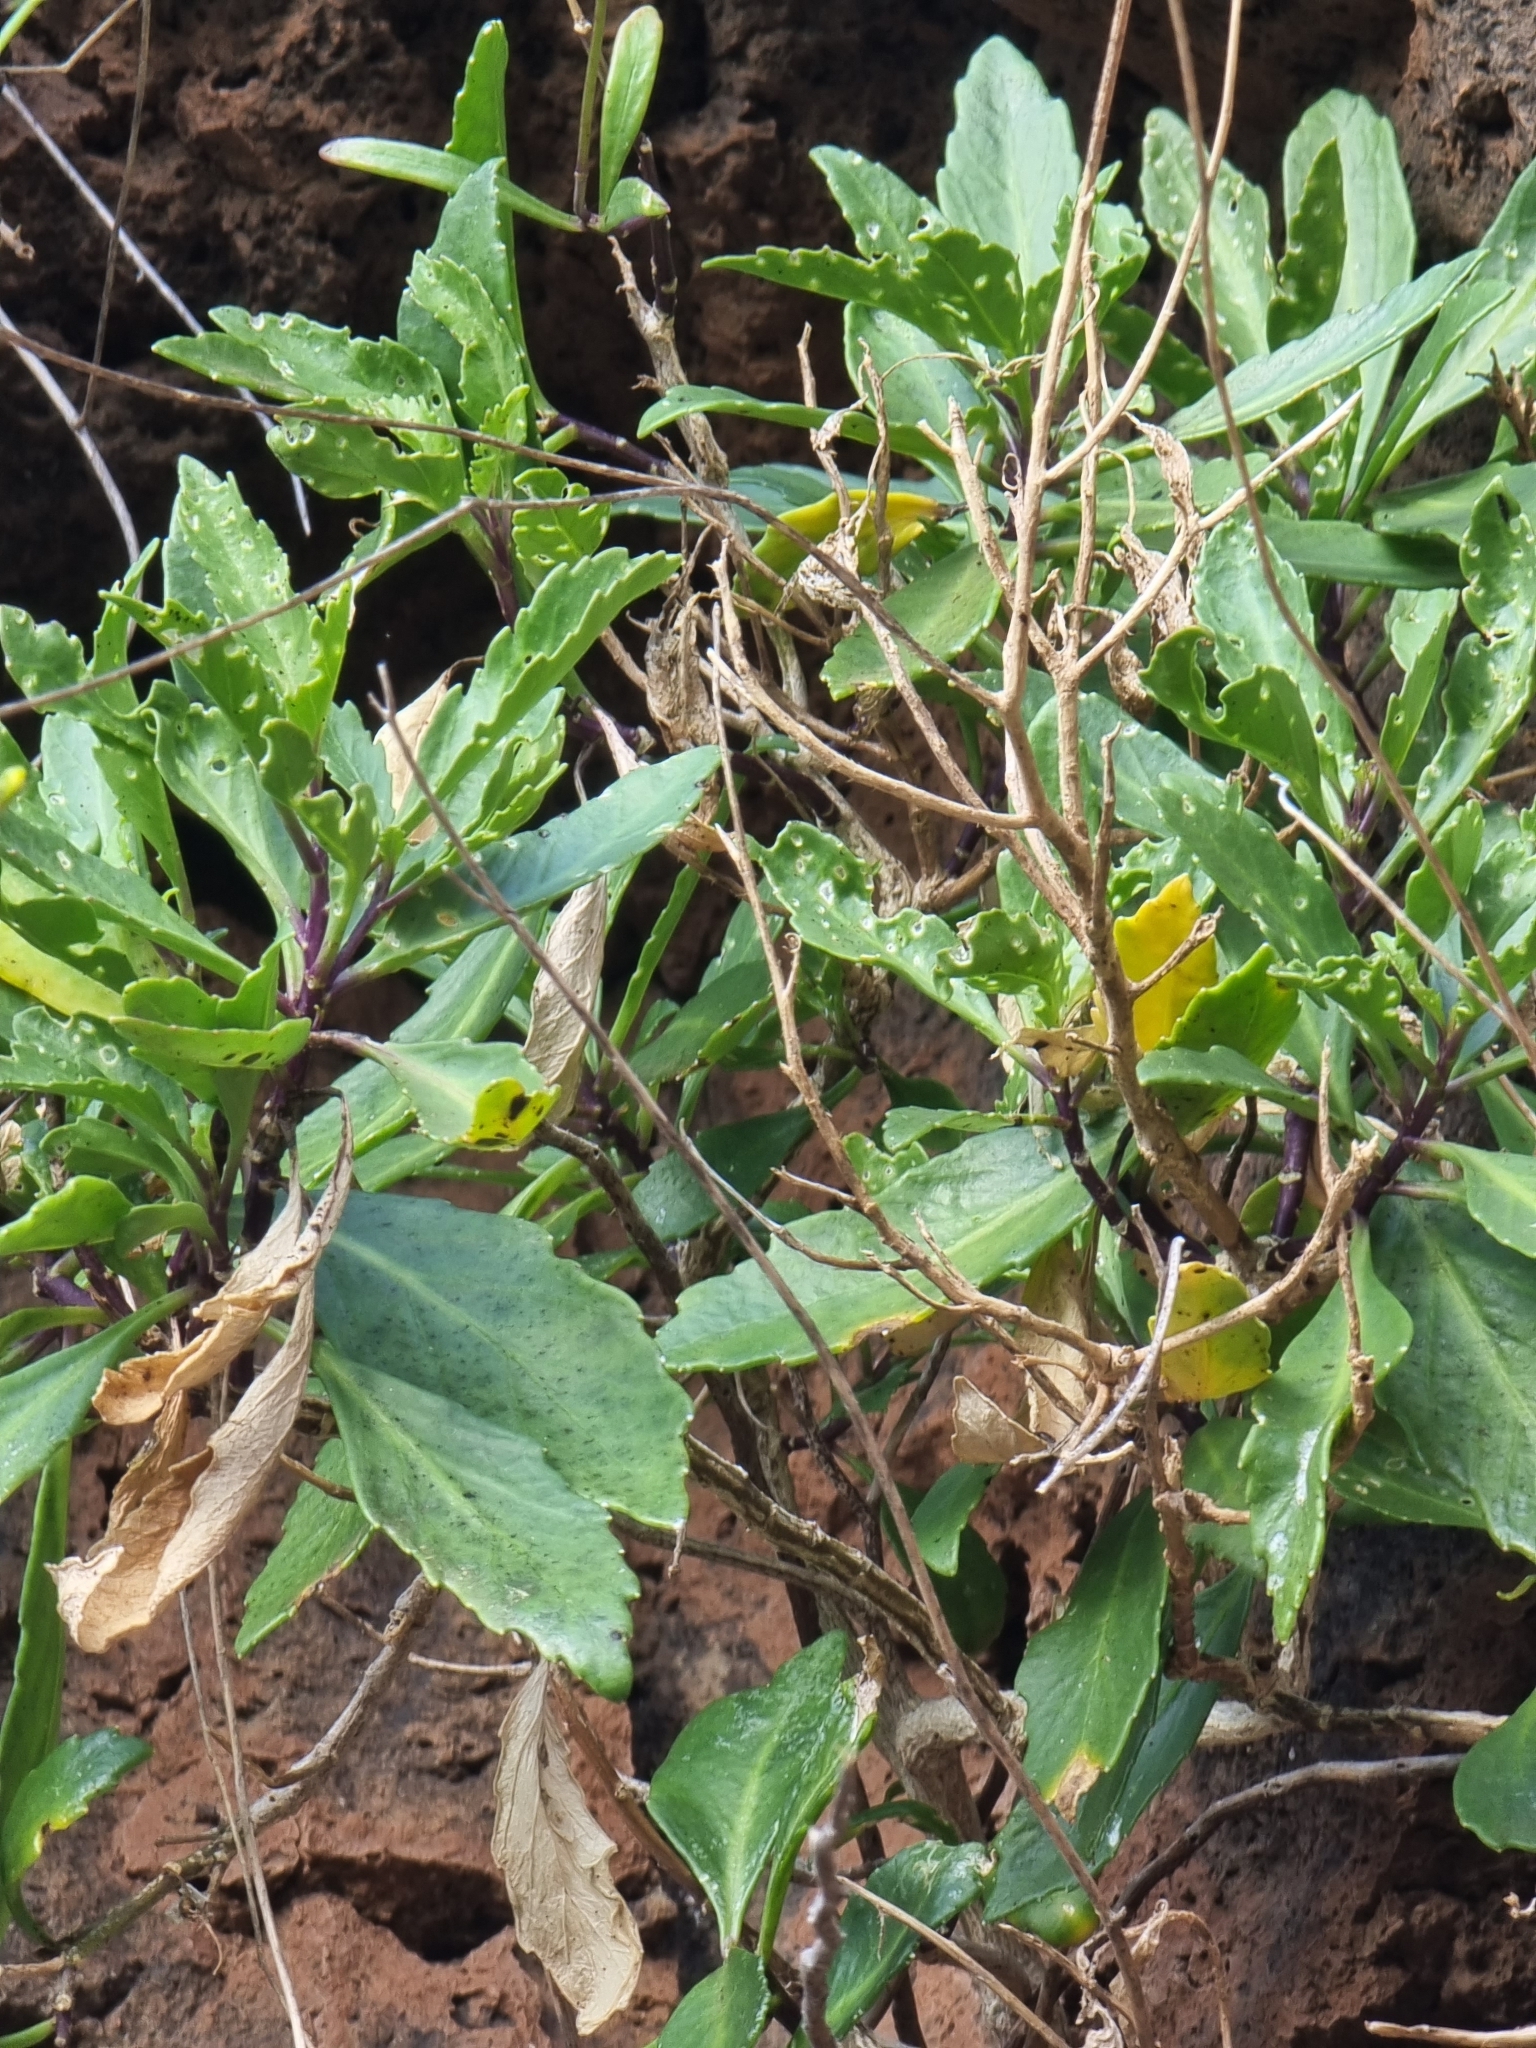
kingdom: Plantae
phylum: Tracheophyta
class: Magnoliopsida
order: Brassicales
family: Brassicaceae
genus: Sinapidendron
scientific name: Sinapidendron angustifolium
